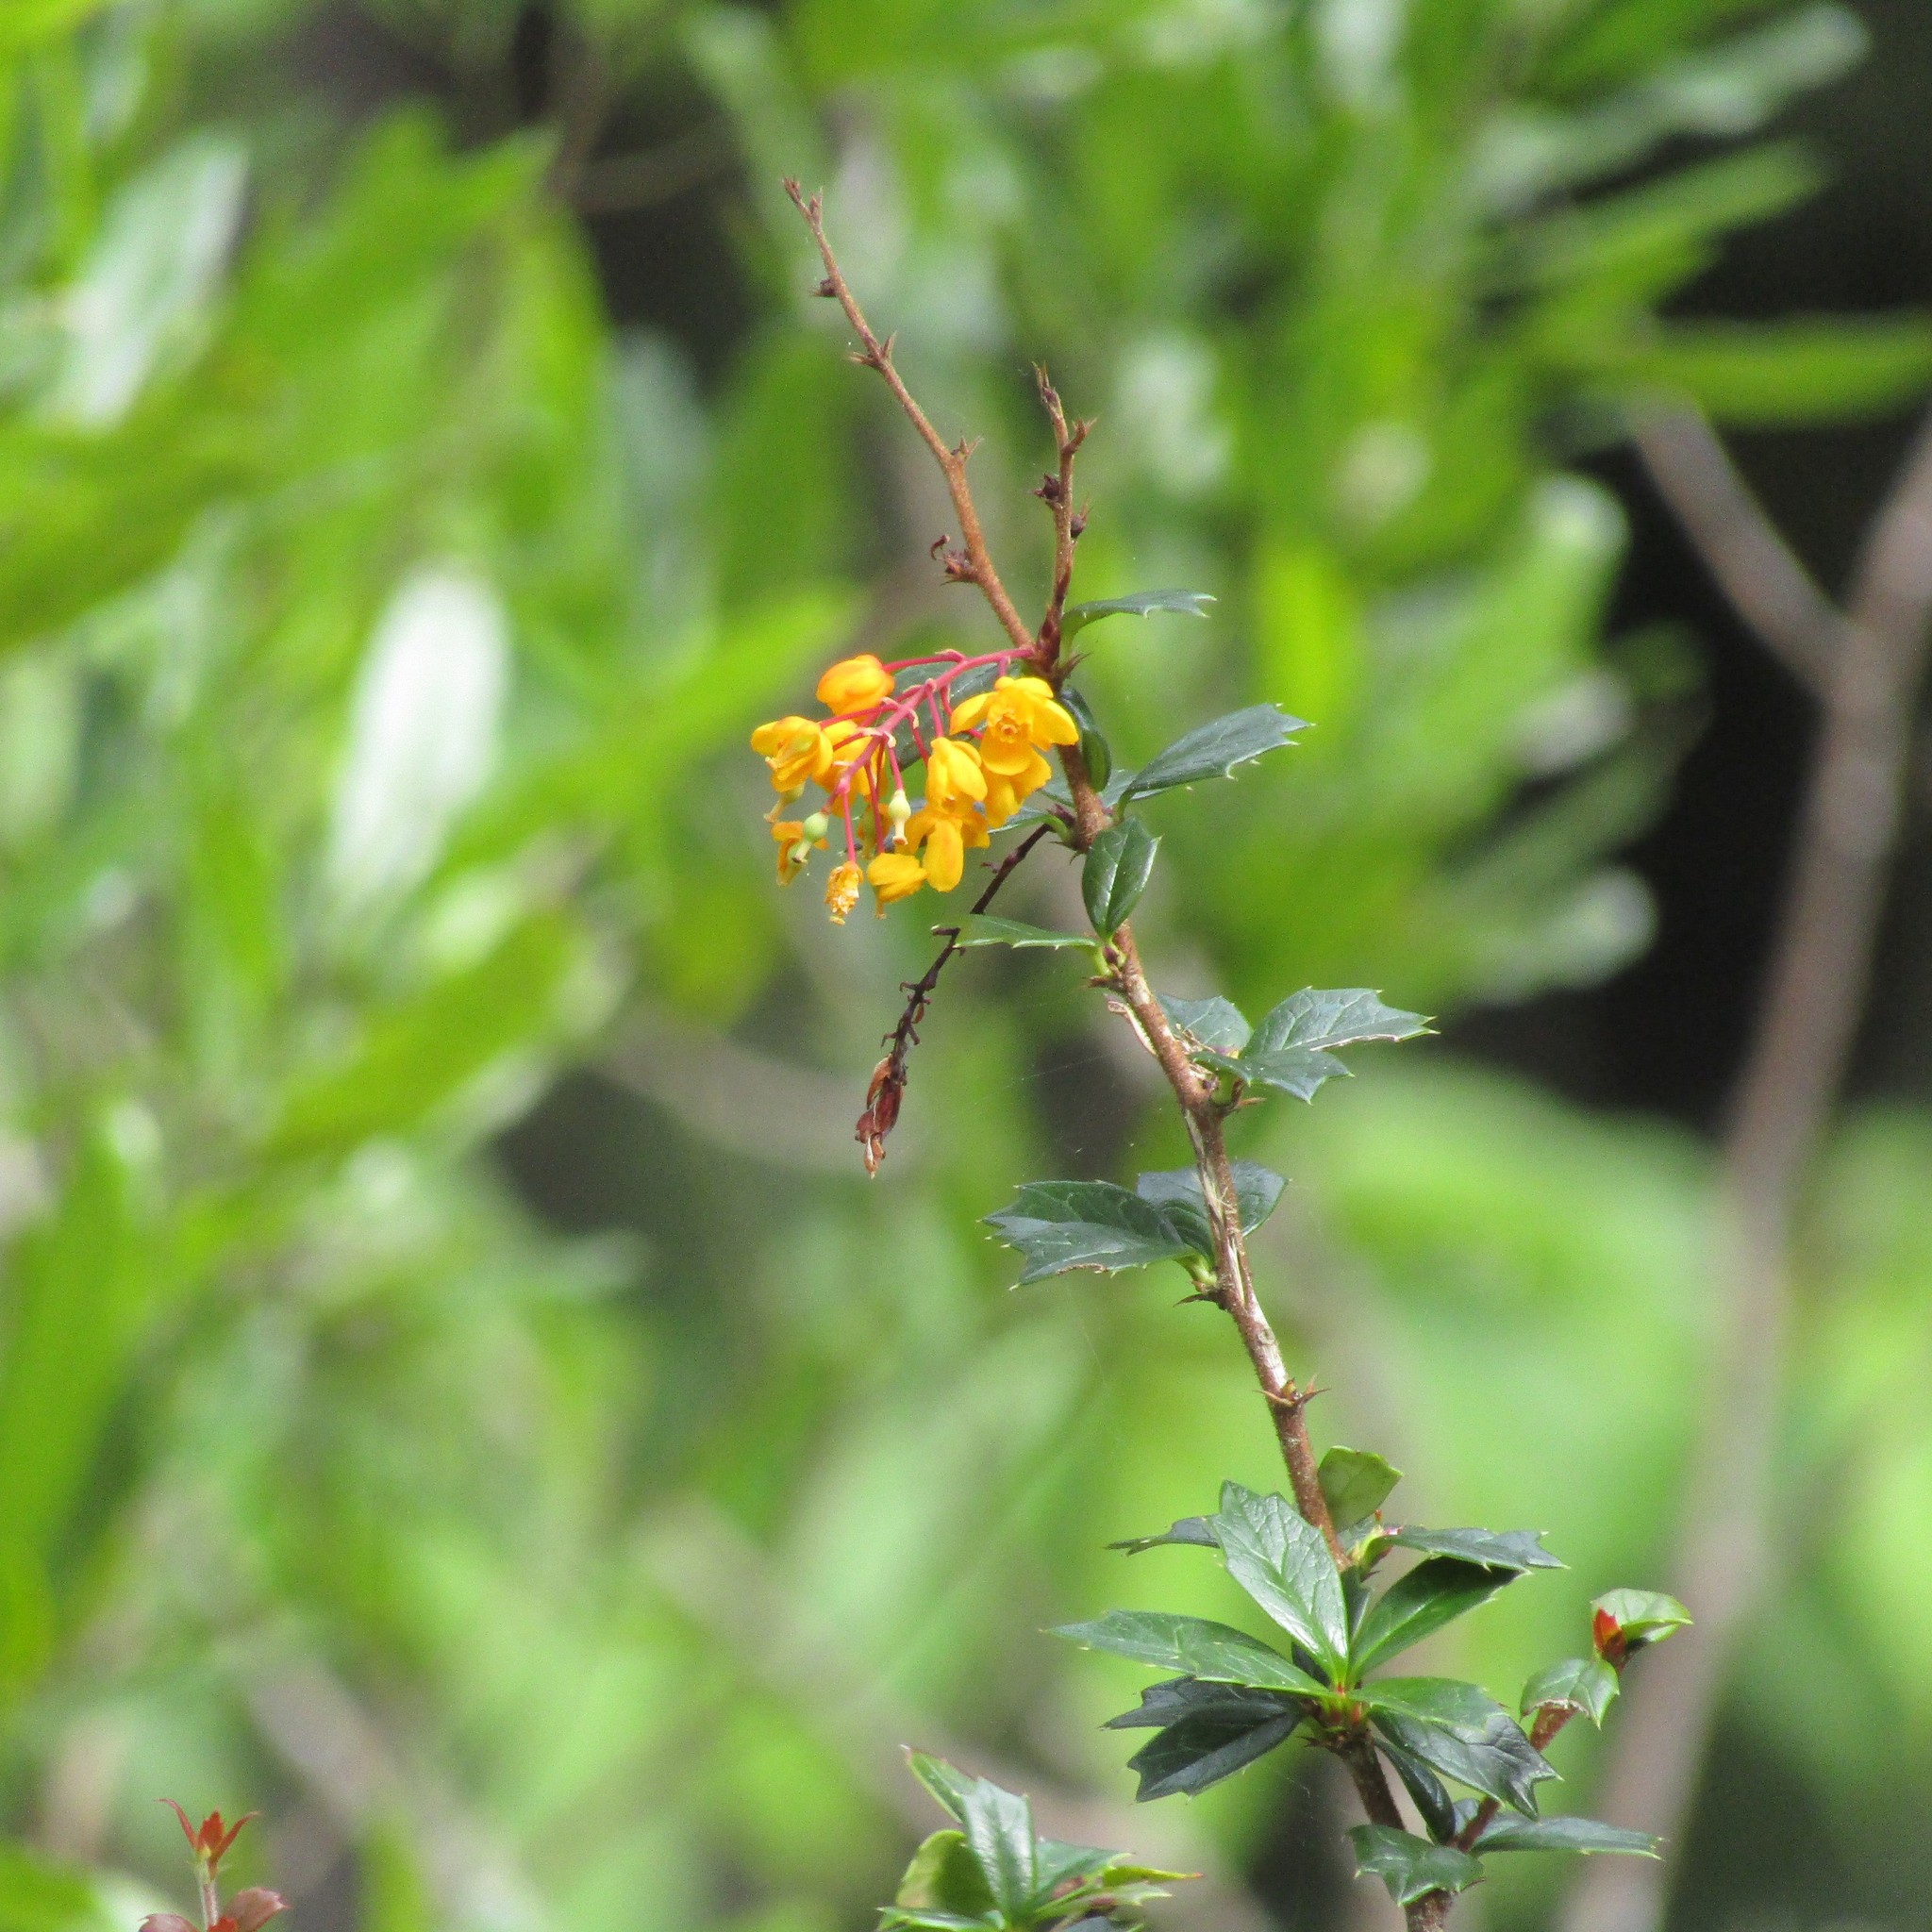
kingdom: Plantae
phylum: Tracheophyta
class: Magnoliopsida
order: Ranunculales
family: Berberidaceae
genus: Berberis
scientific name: Berberis darwinii
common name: Darwin's barberry
